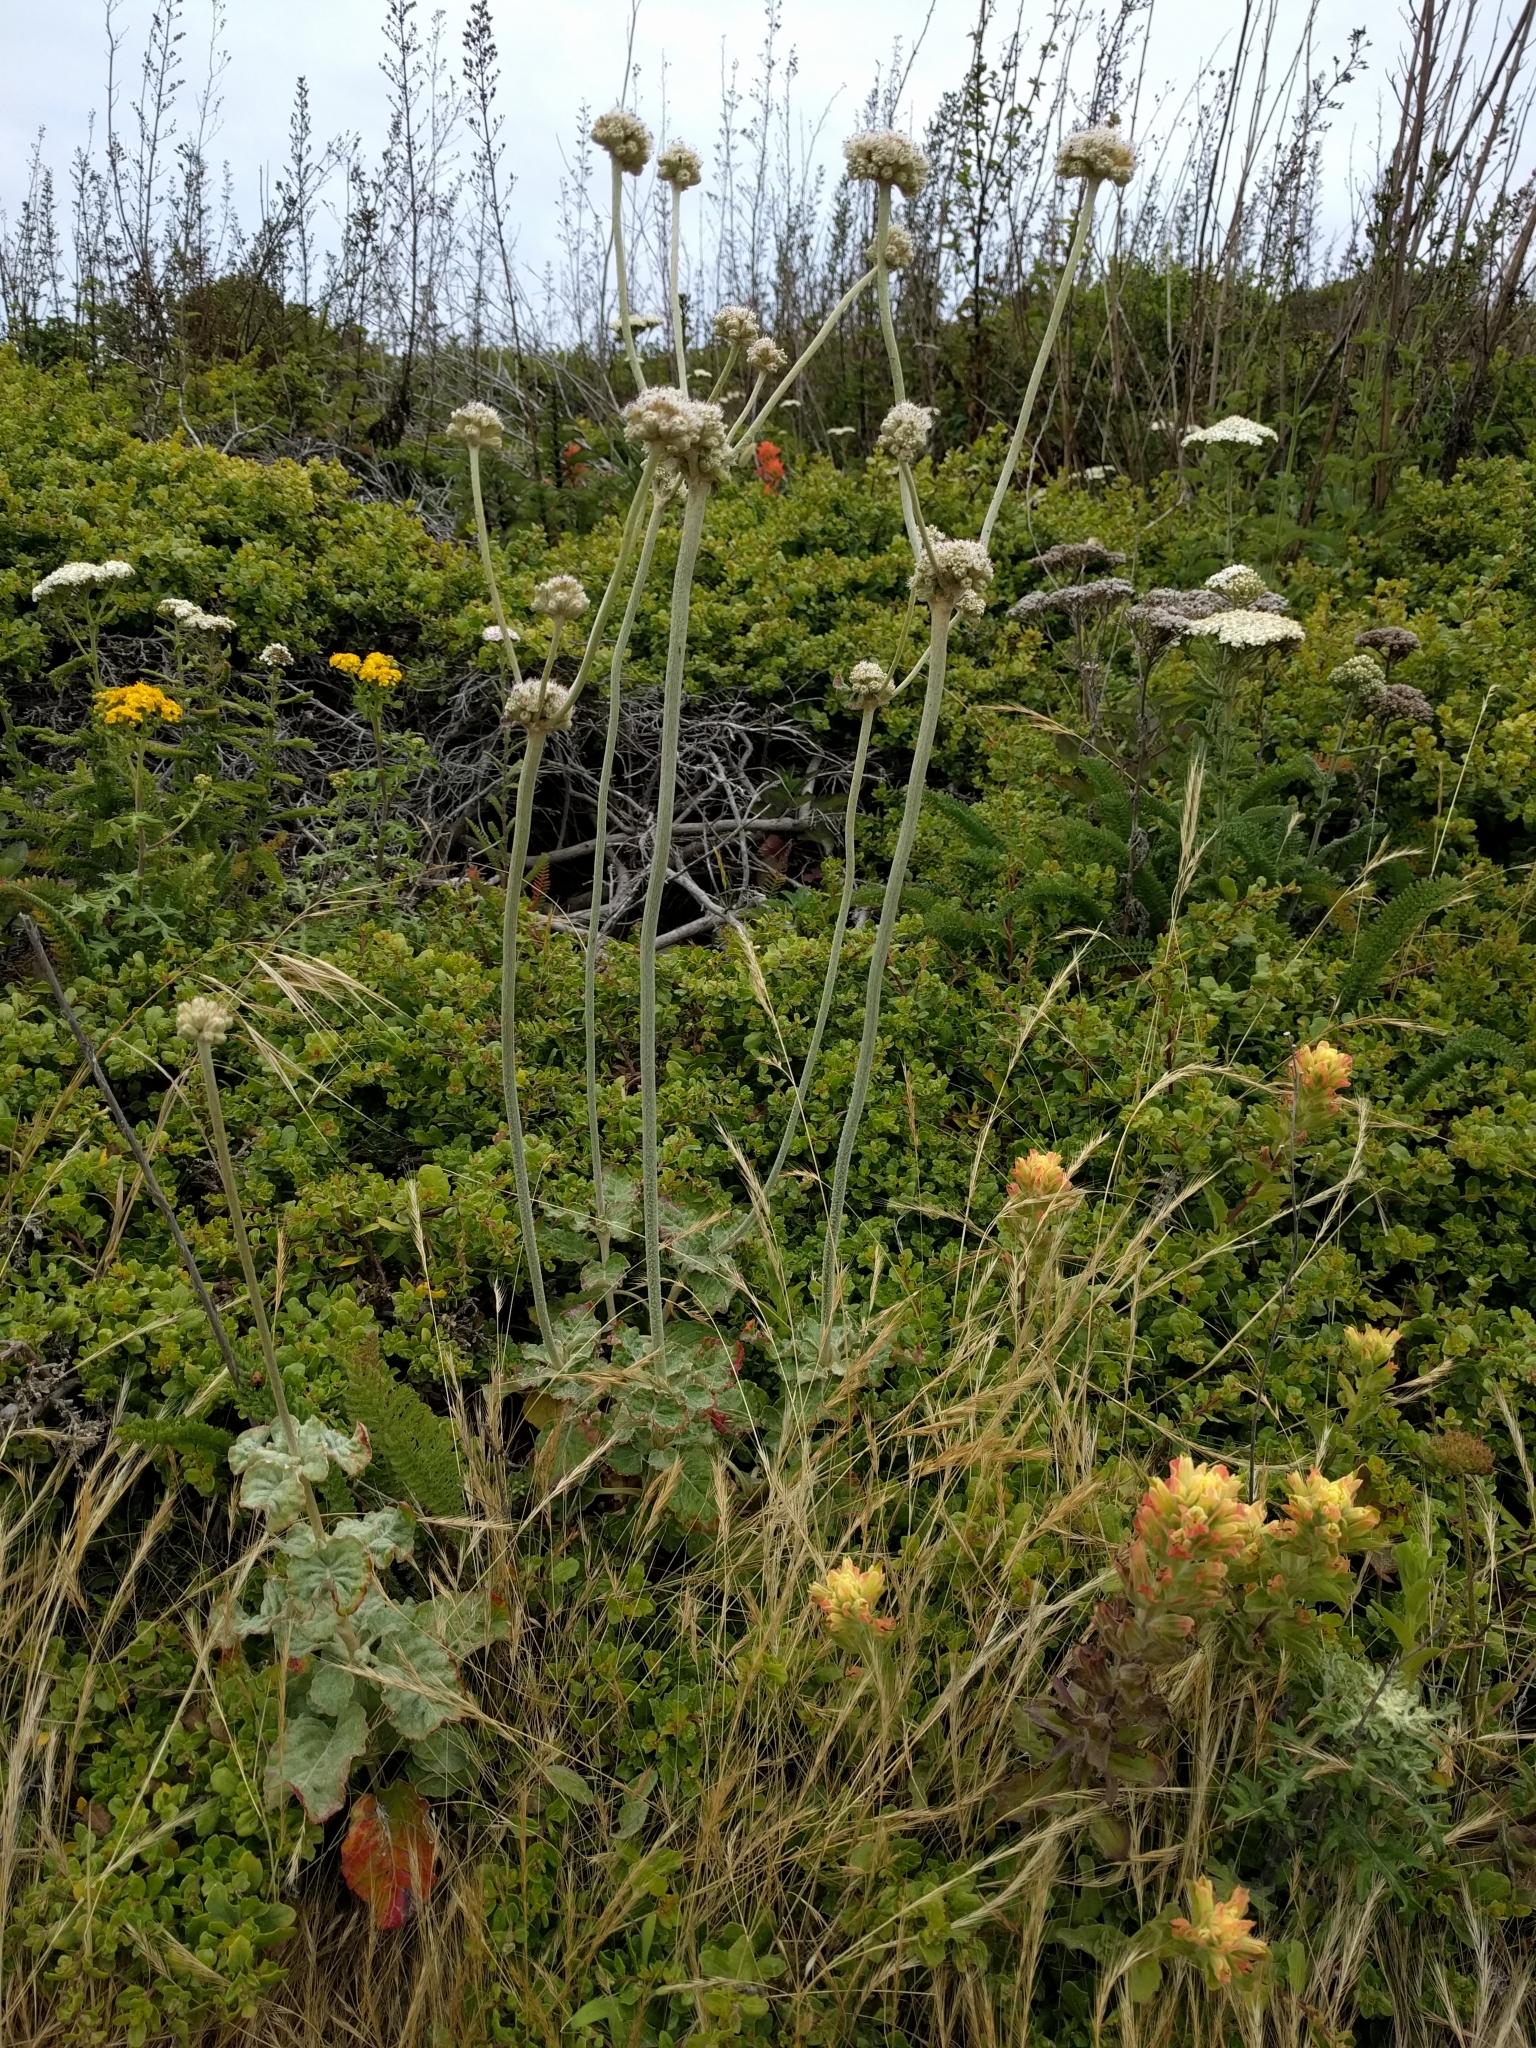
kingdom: Plantae
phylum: Tracheophyta
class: Magnoliopsida
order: Caryophyllales
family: Polygonaceae
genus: Eriogonum
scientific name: Eriogonum latifolium
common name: Seaside wild buckwheat
